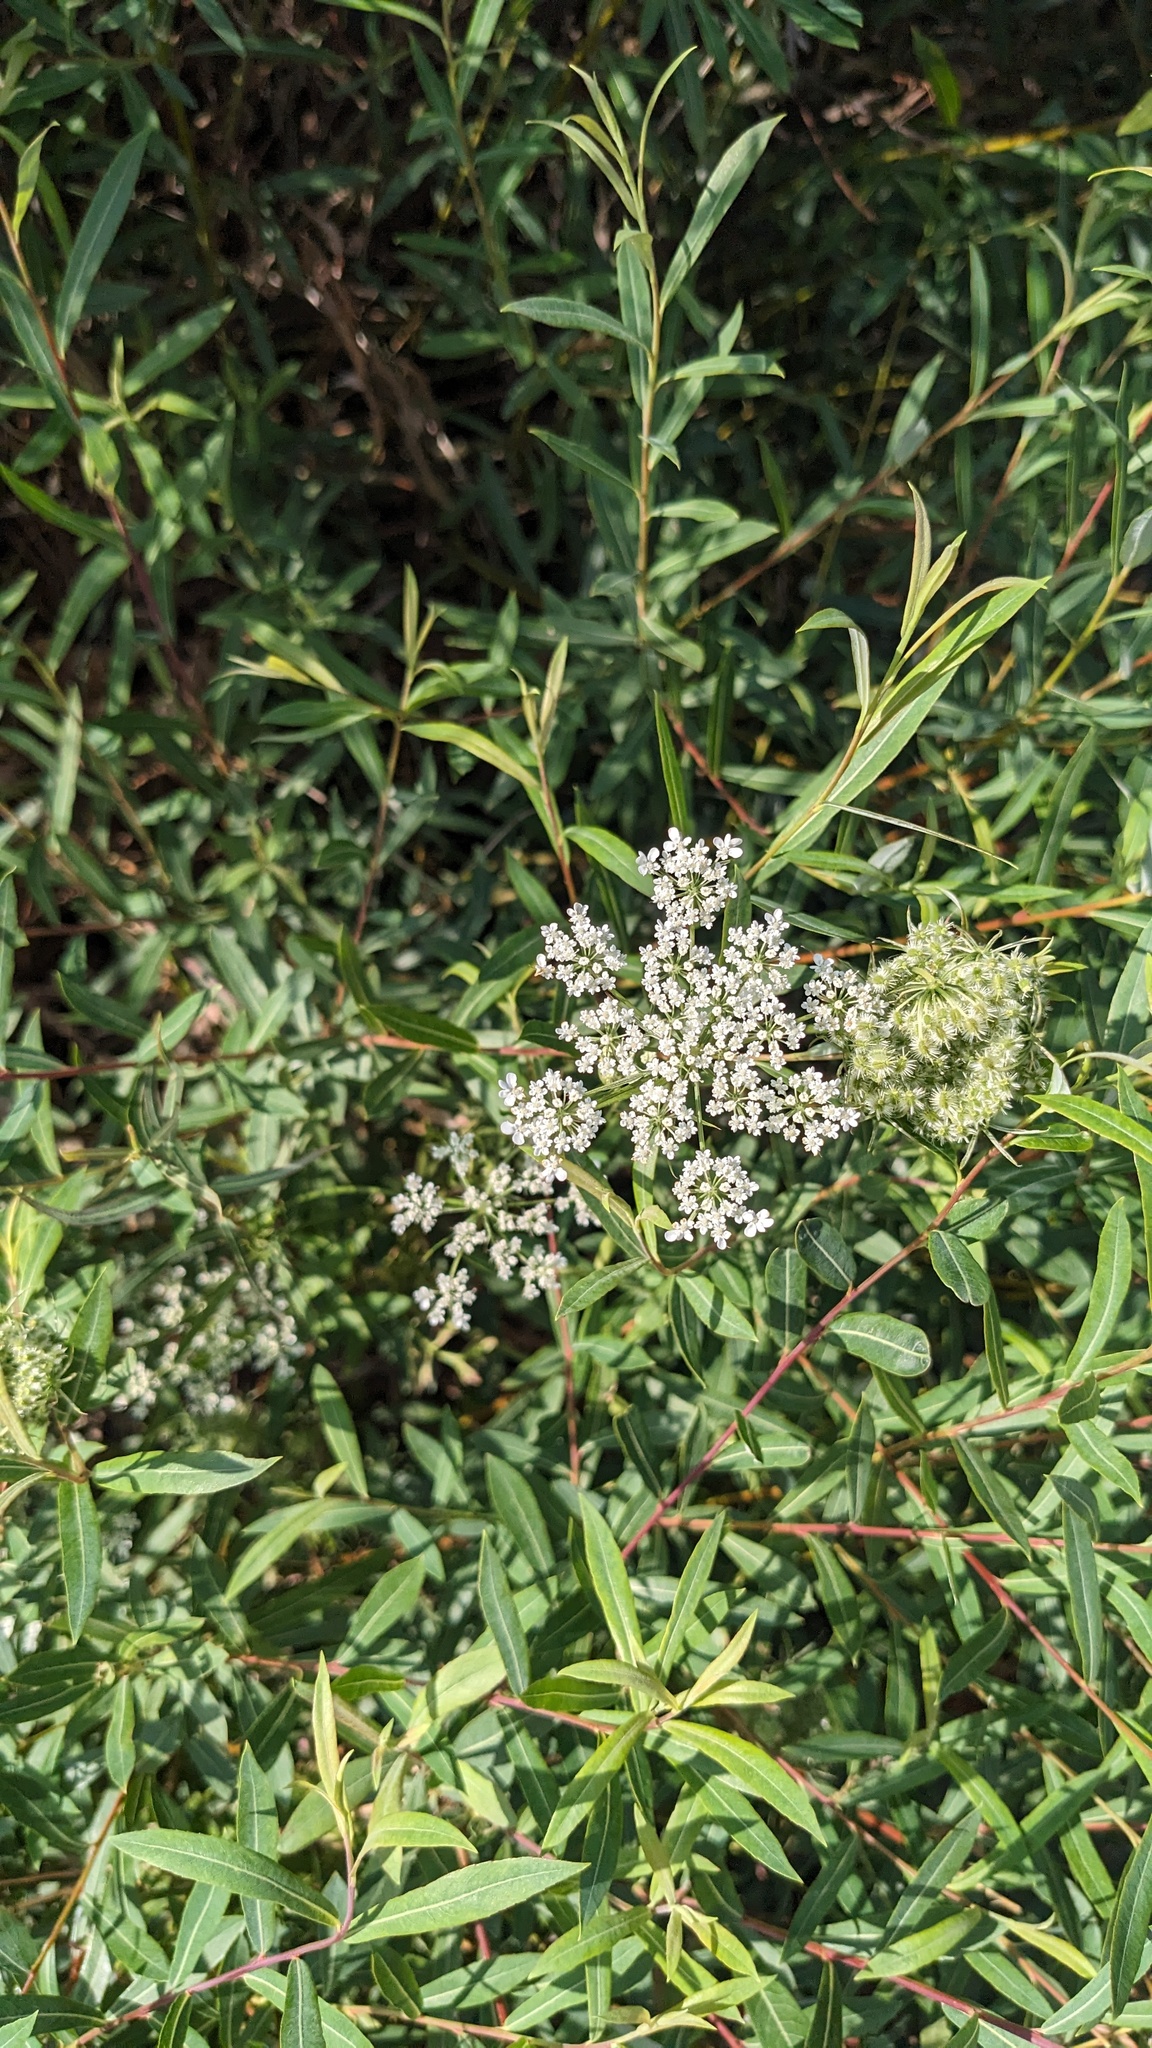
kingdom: Plantae
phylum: Tracheophyta
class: Magnoliopsida
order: Apiales
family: Apiaceae
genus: Daucus
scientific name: Daucus carota
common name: Wild carrot
